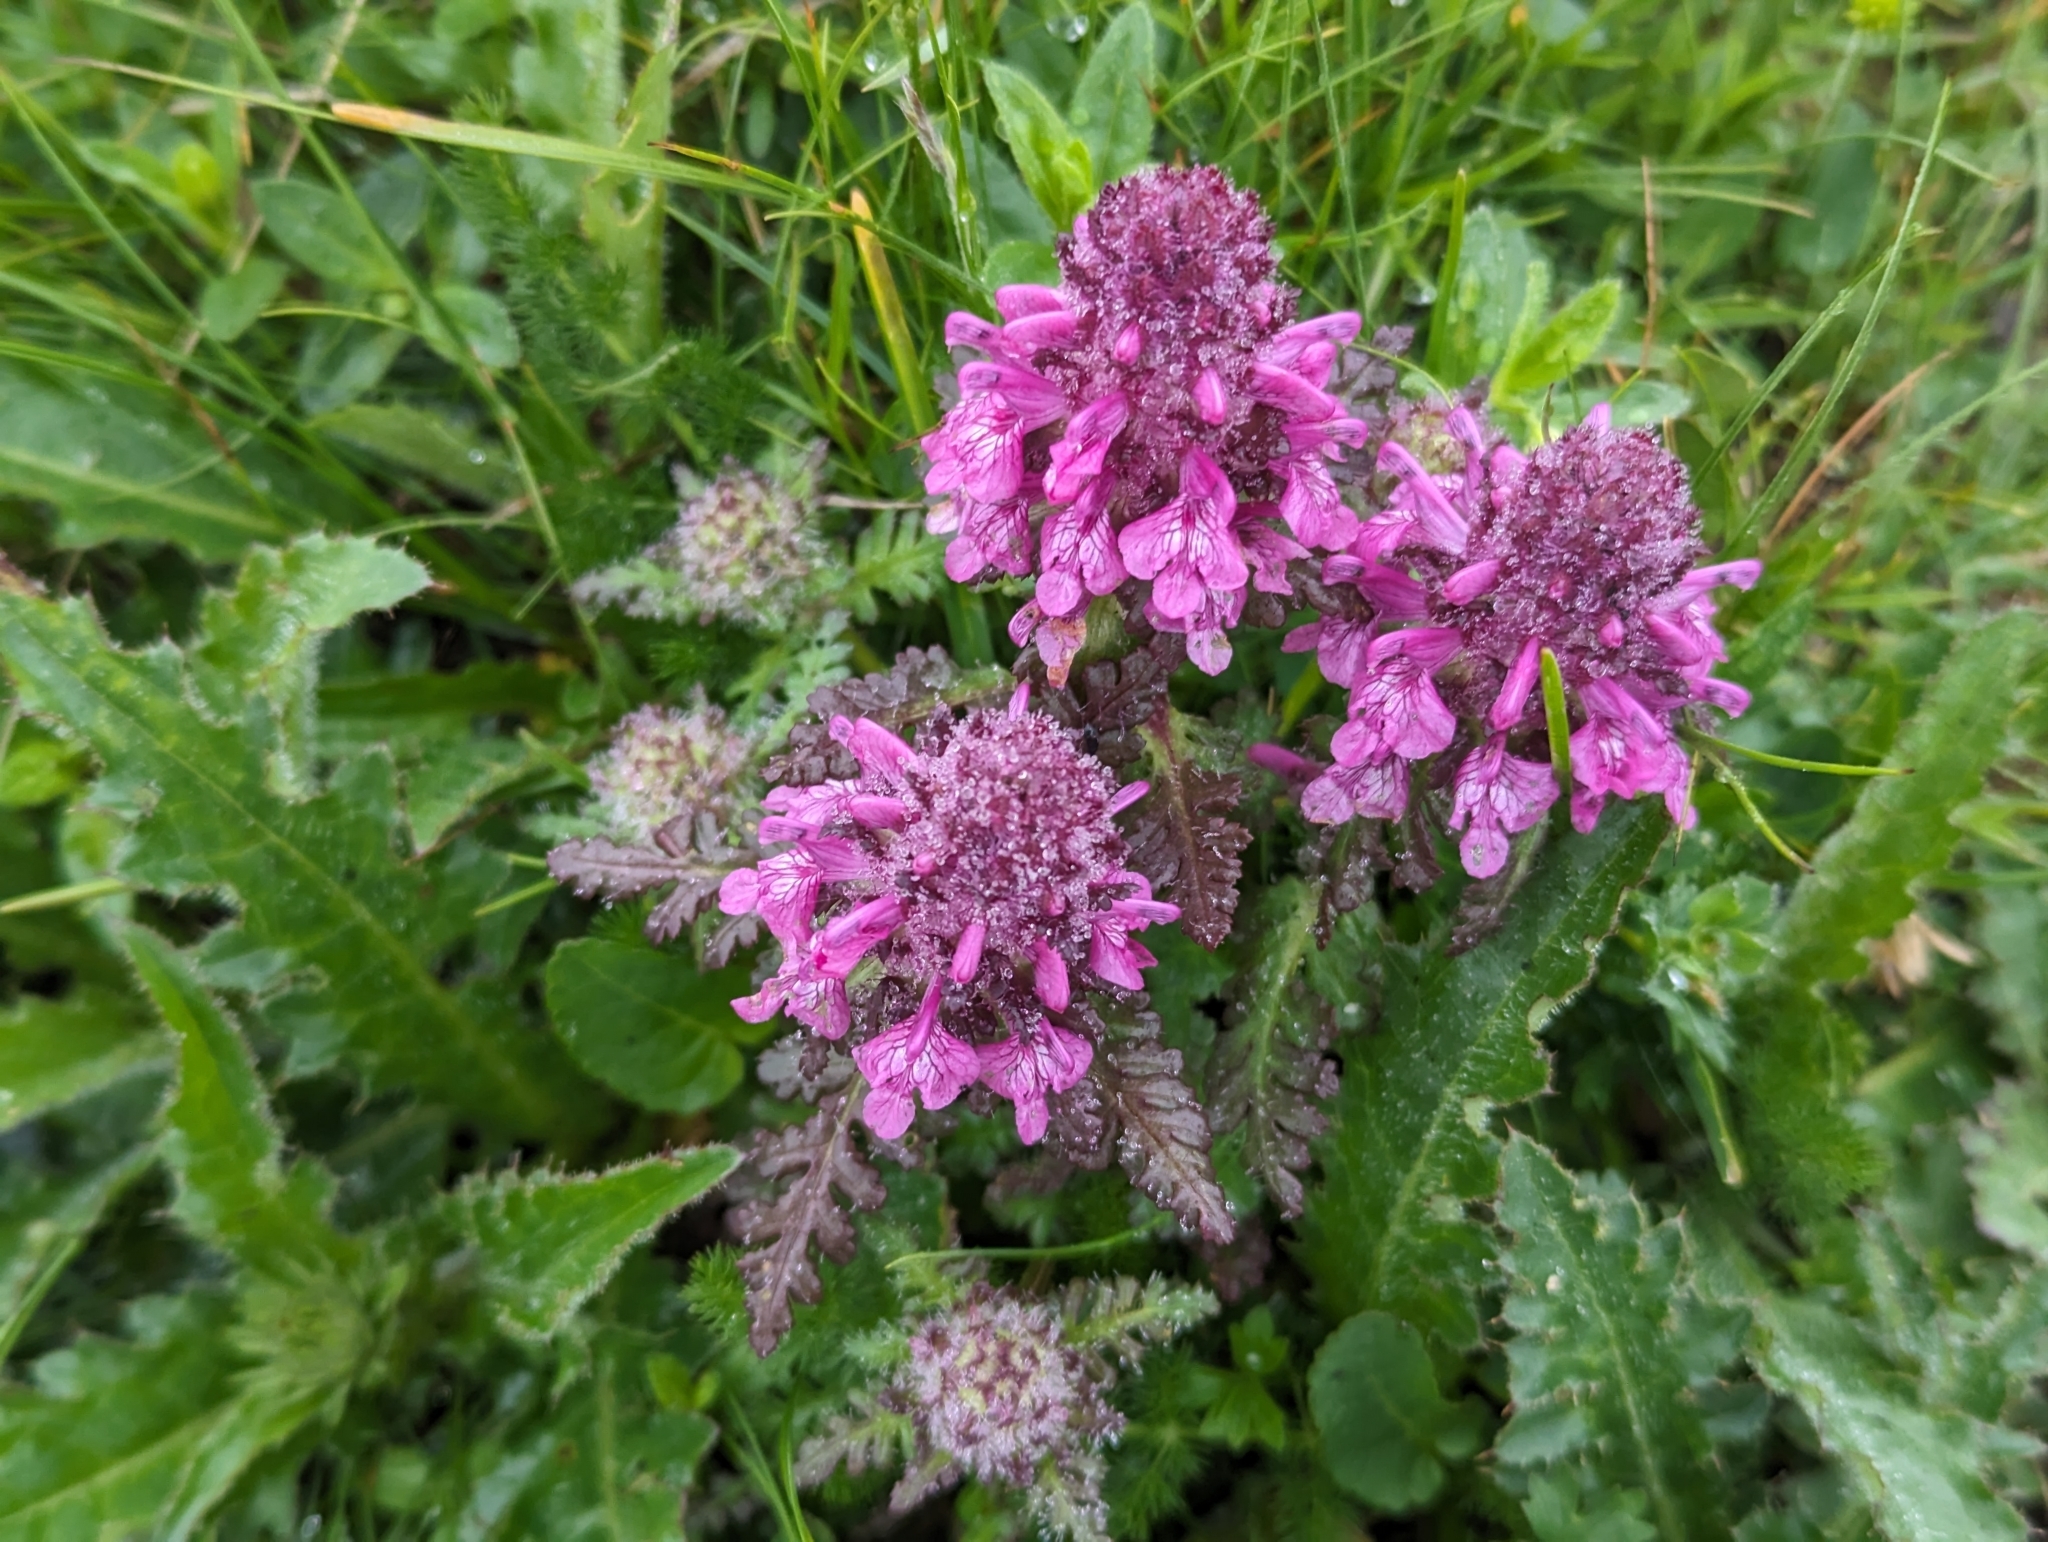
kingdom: Plantae
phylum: Tracheophyta
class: Magnoliopsida
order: Lamiales
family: Orobanchaceae
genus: Pedicularis
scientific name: Pedicularis verticillata
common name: Whorled lousewort
